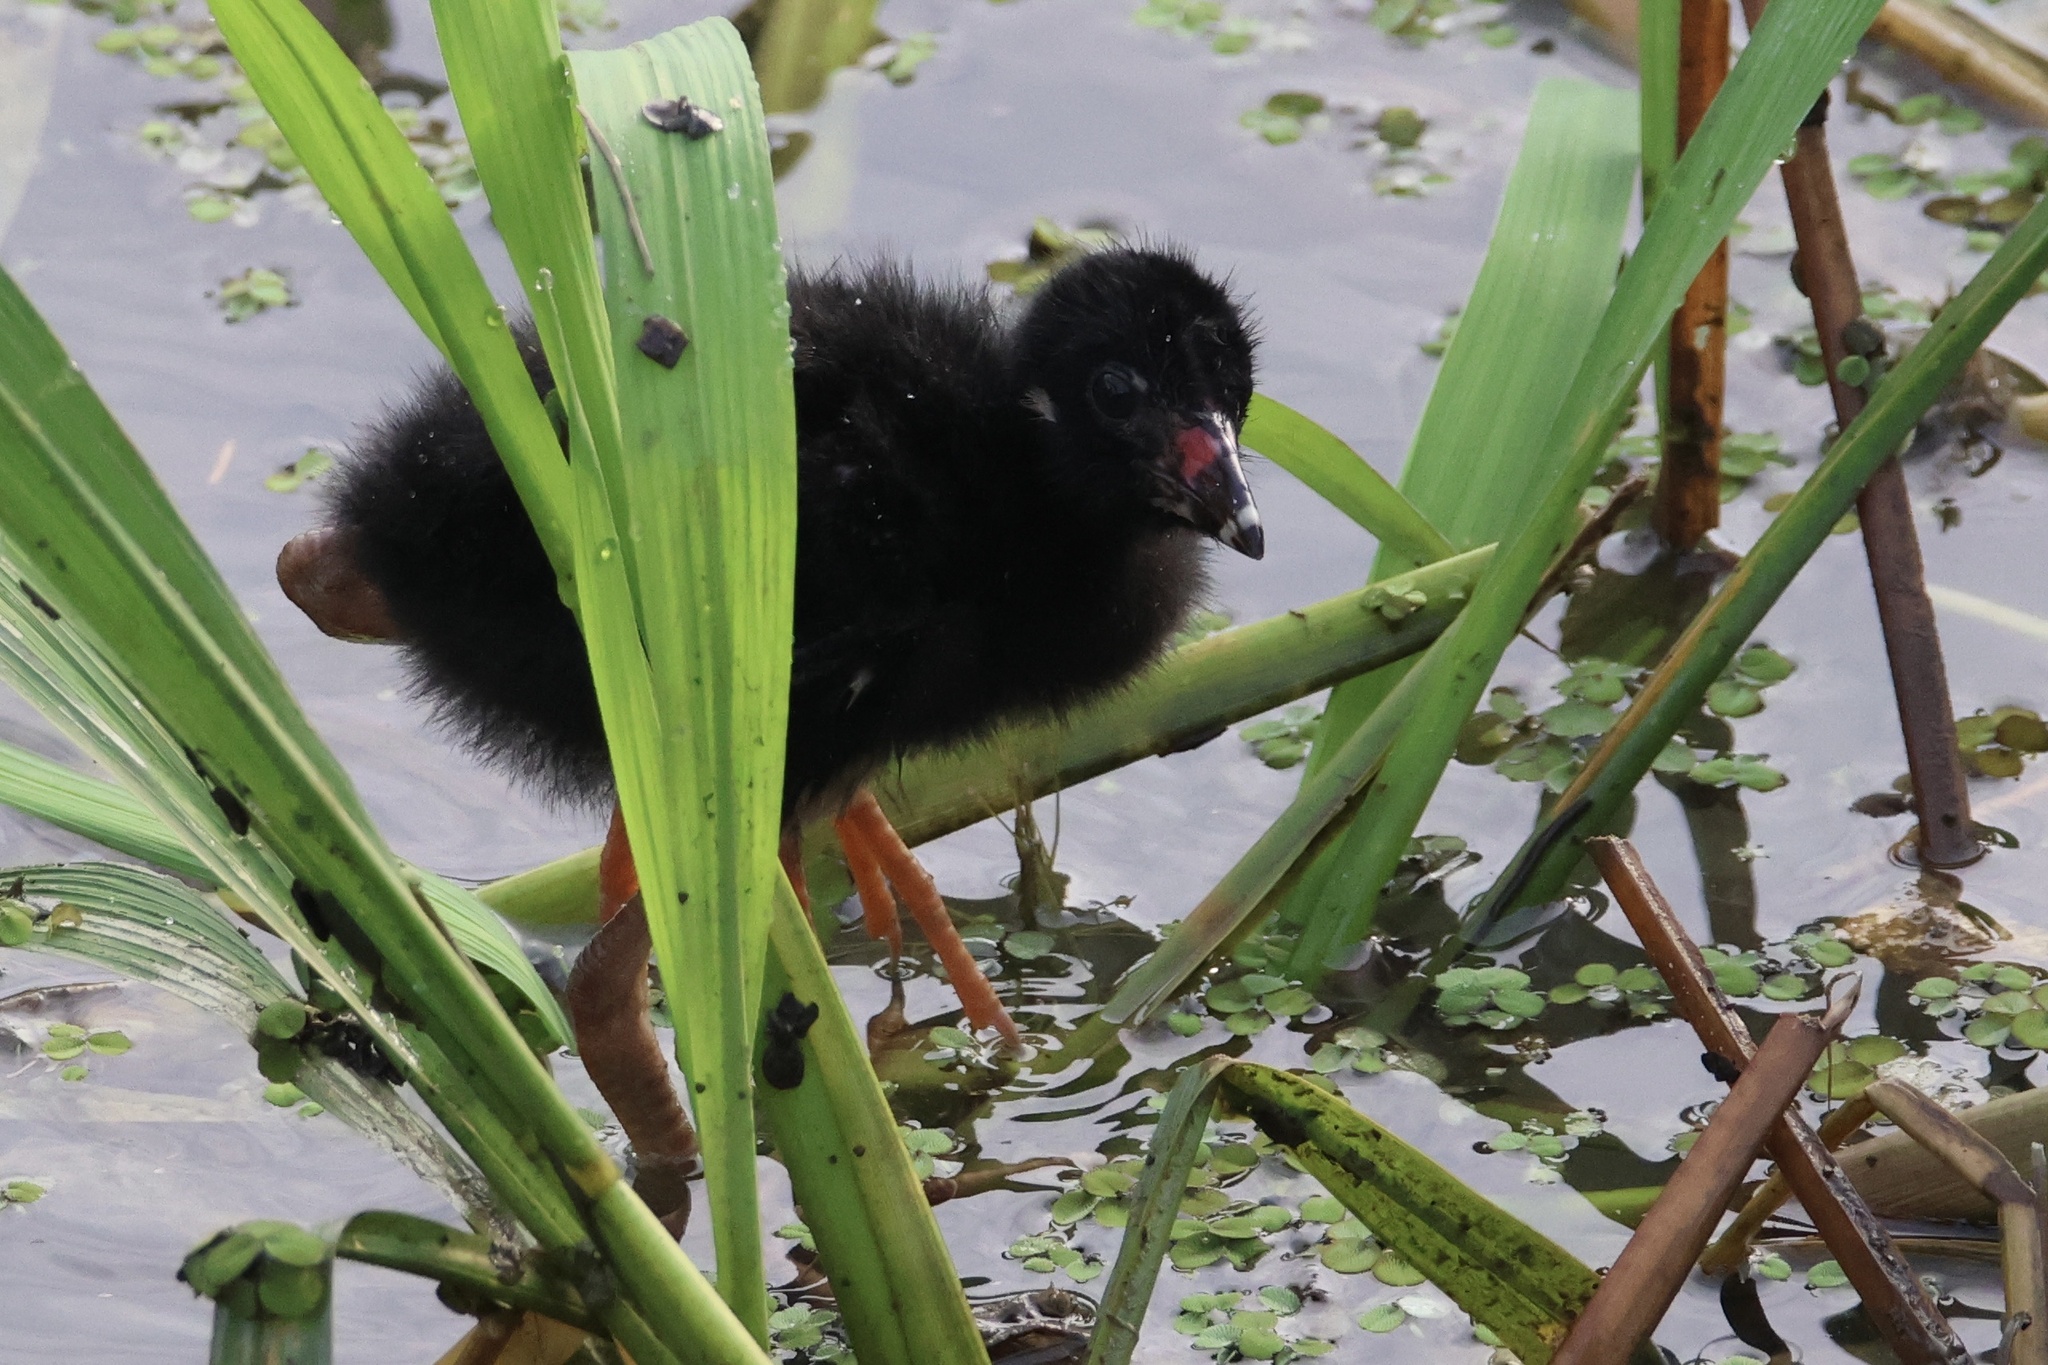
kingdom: Animalia
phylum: Chordata
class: Aves
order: Gruiformes
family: Rallidae
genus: Porphyrio
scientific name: Porphyrio martinica
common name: Purple gallinule
